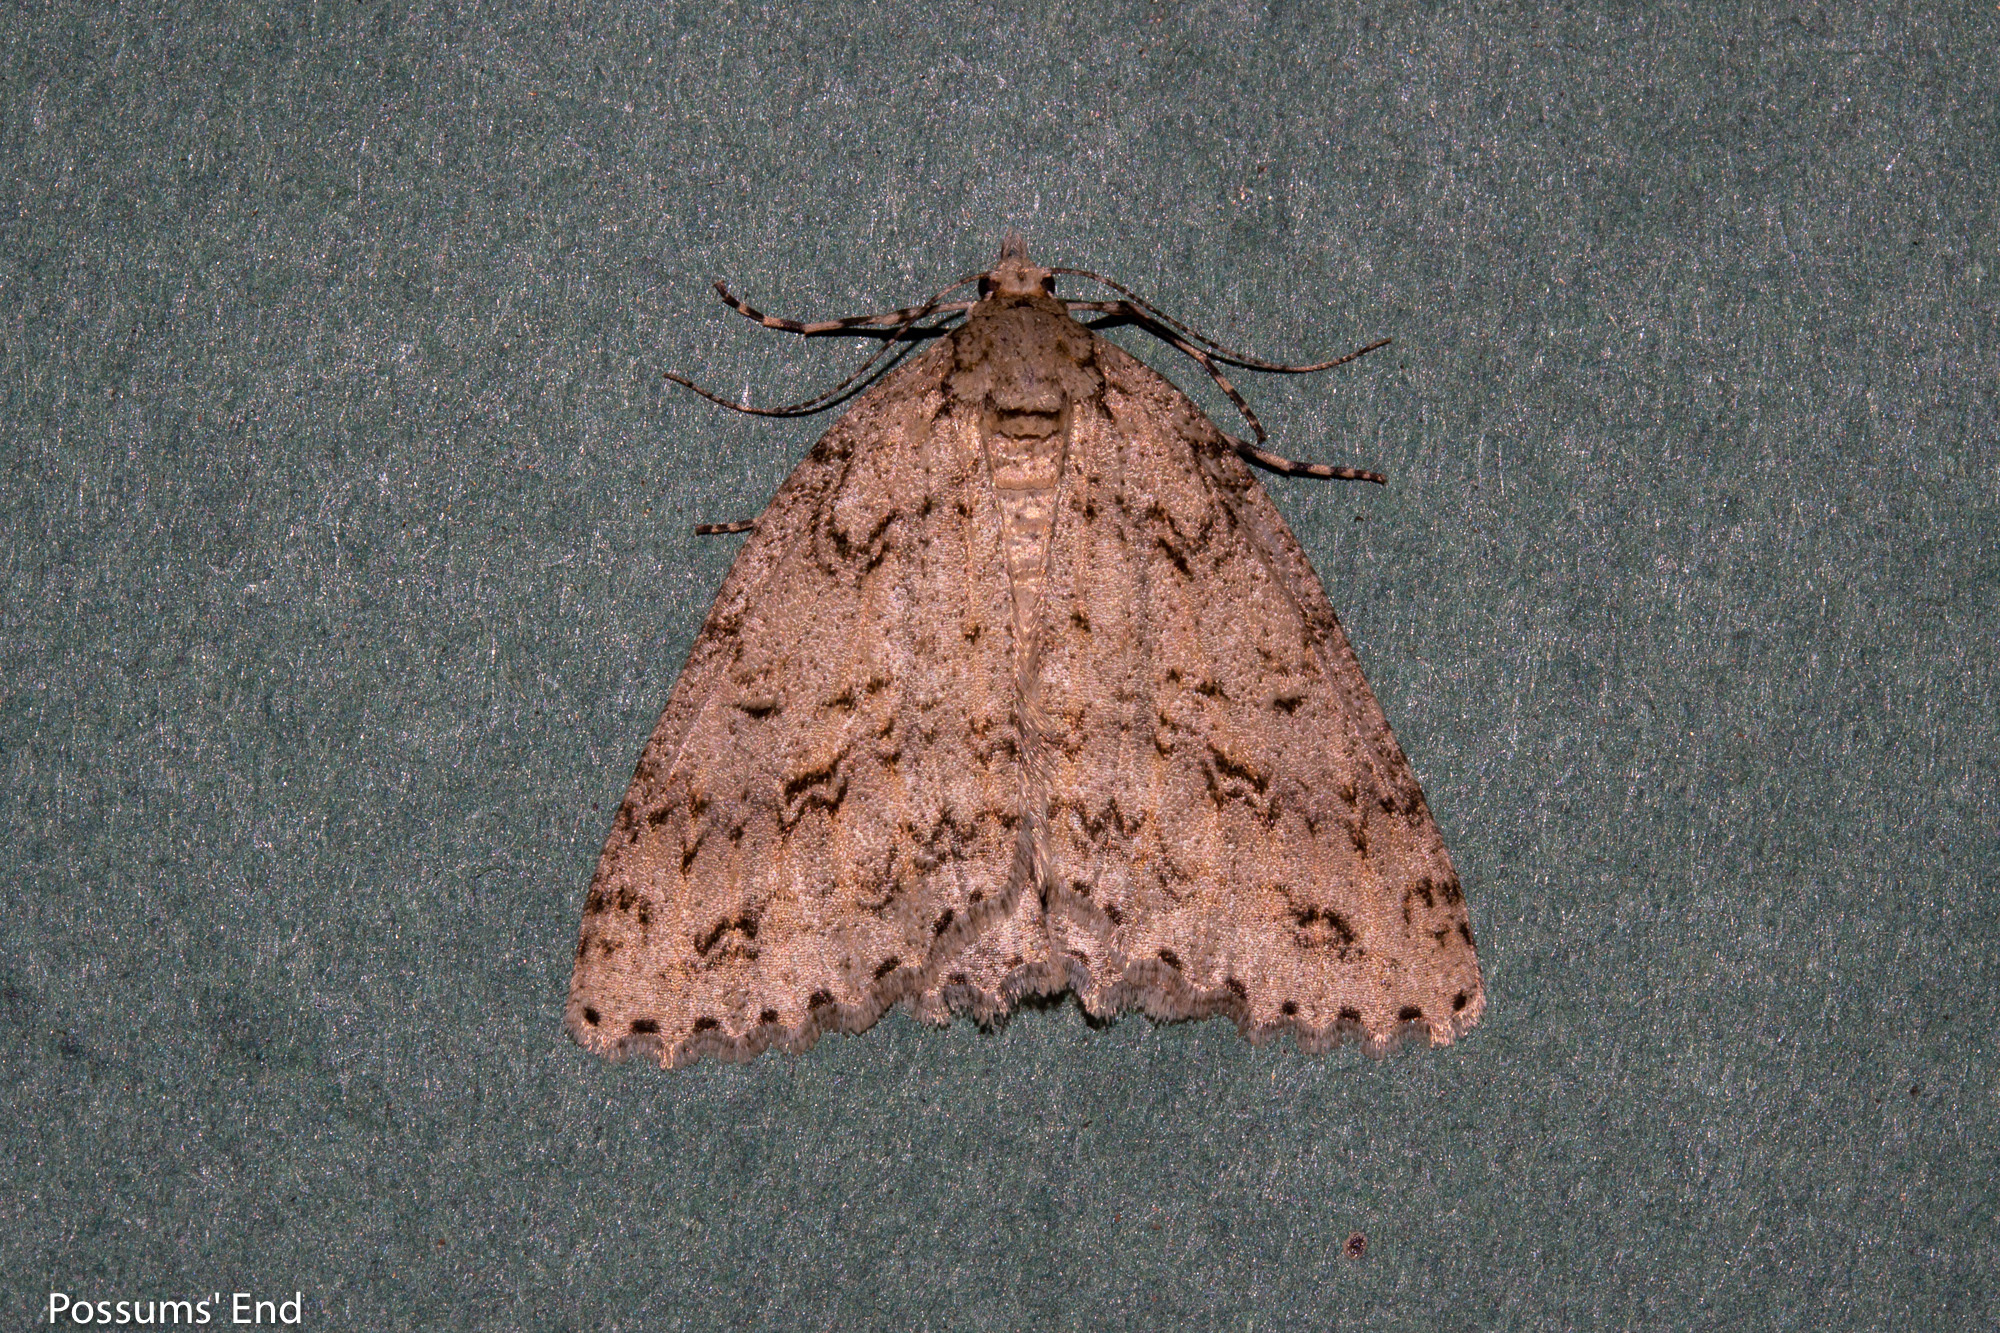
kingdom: Animalia
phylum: Arthropoda
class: Insecta
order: Lepidoptera
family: Geometridae
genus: Pseudocoremia
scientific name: Pseudocoremia rudisata
